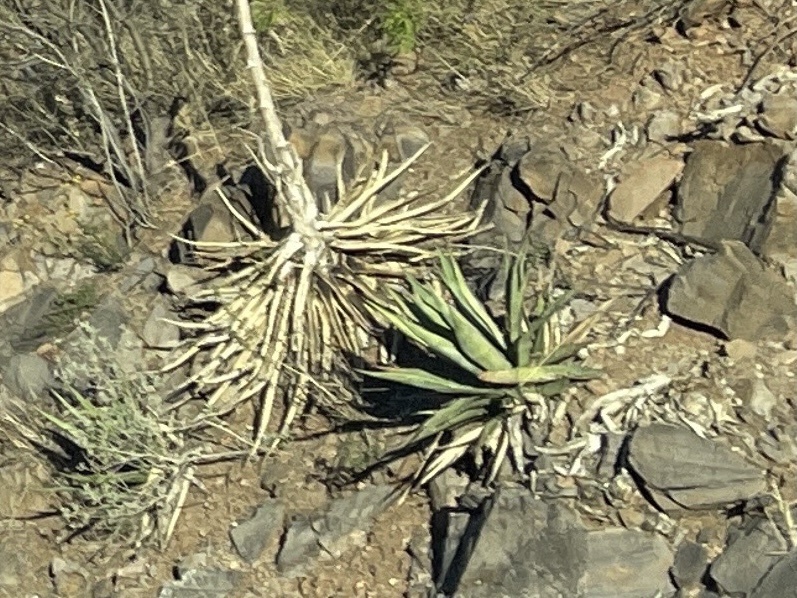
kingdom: Plantae
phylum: Tracheophyta
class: Liliopsida
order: Asparagales
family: Asparagaceae
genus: Agave
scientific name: Agave palmeri
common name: Palmer agave
